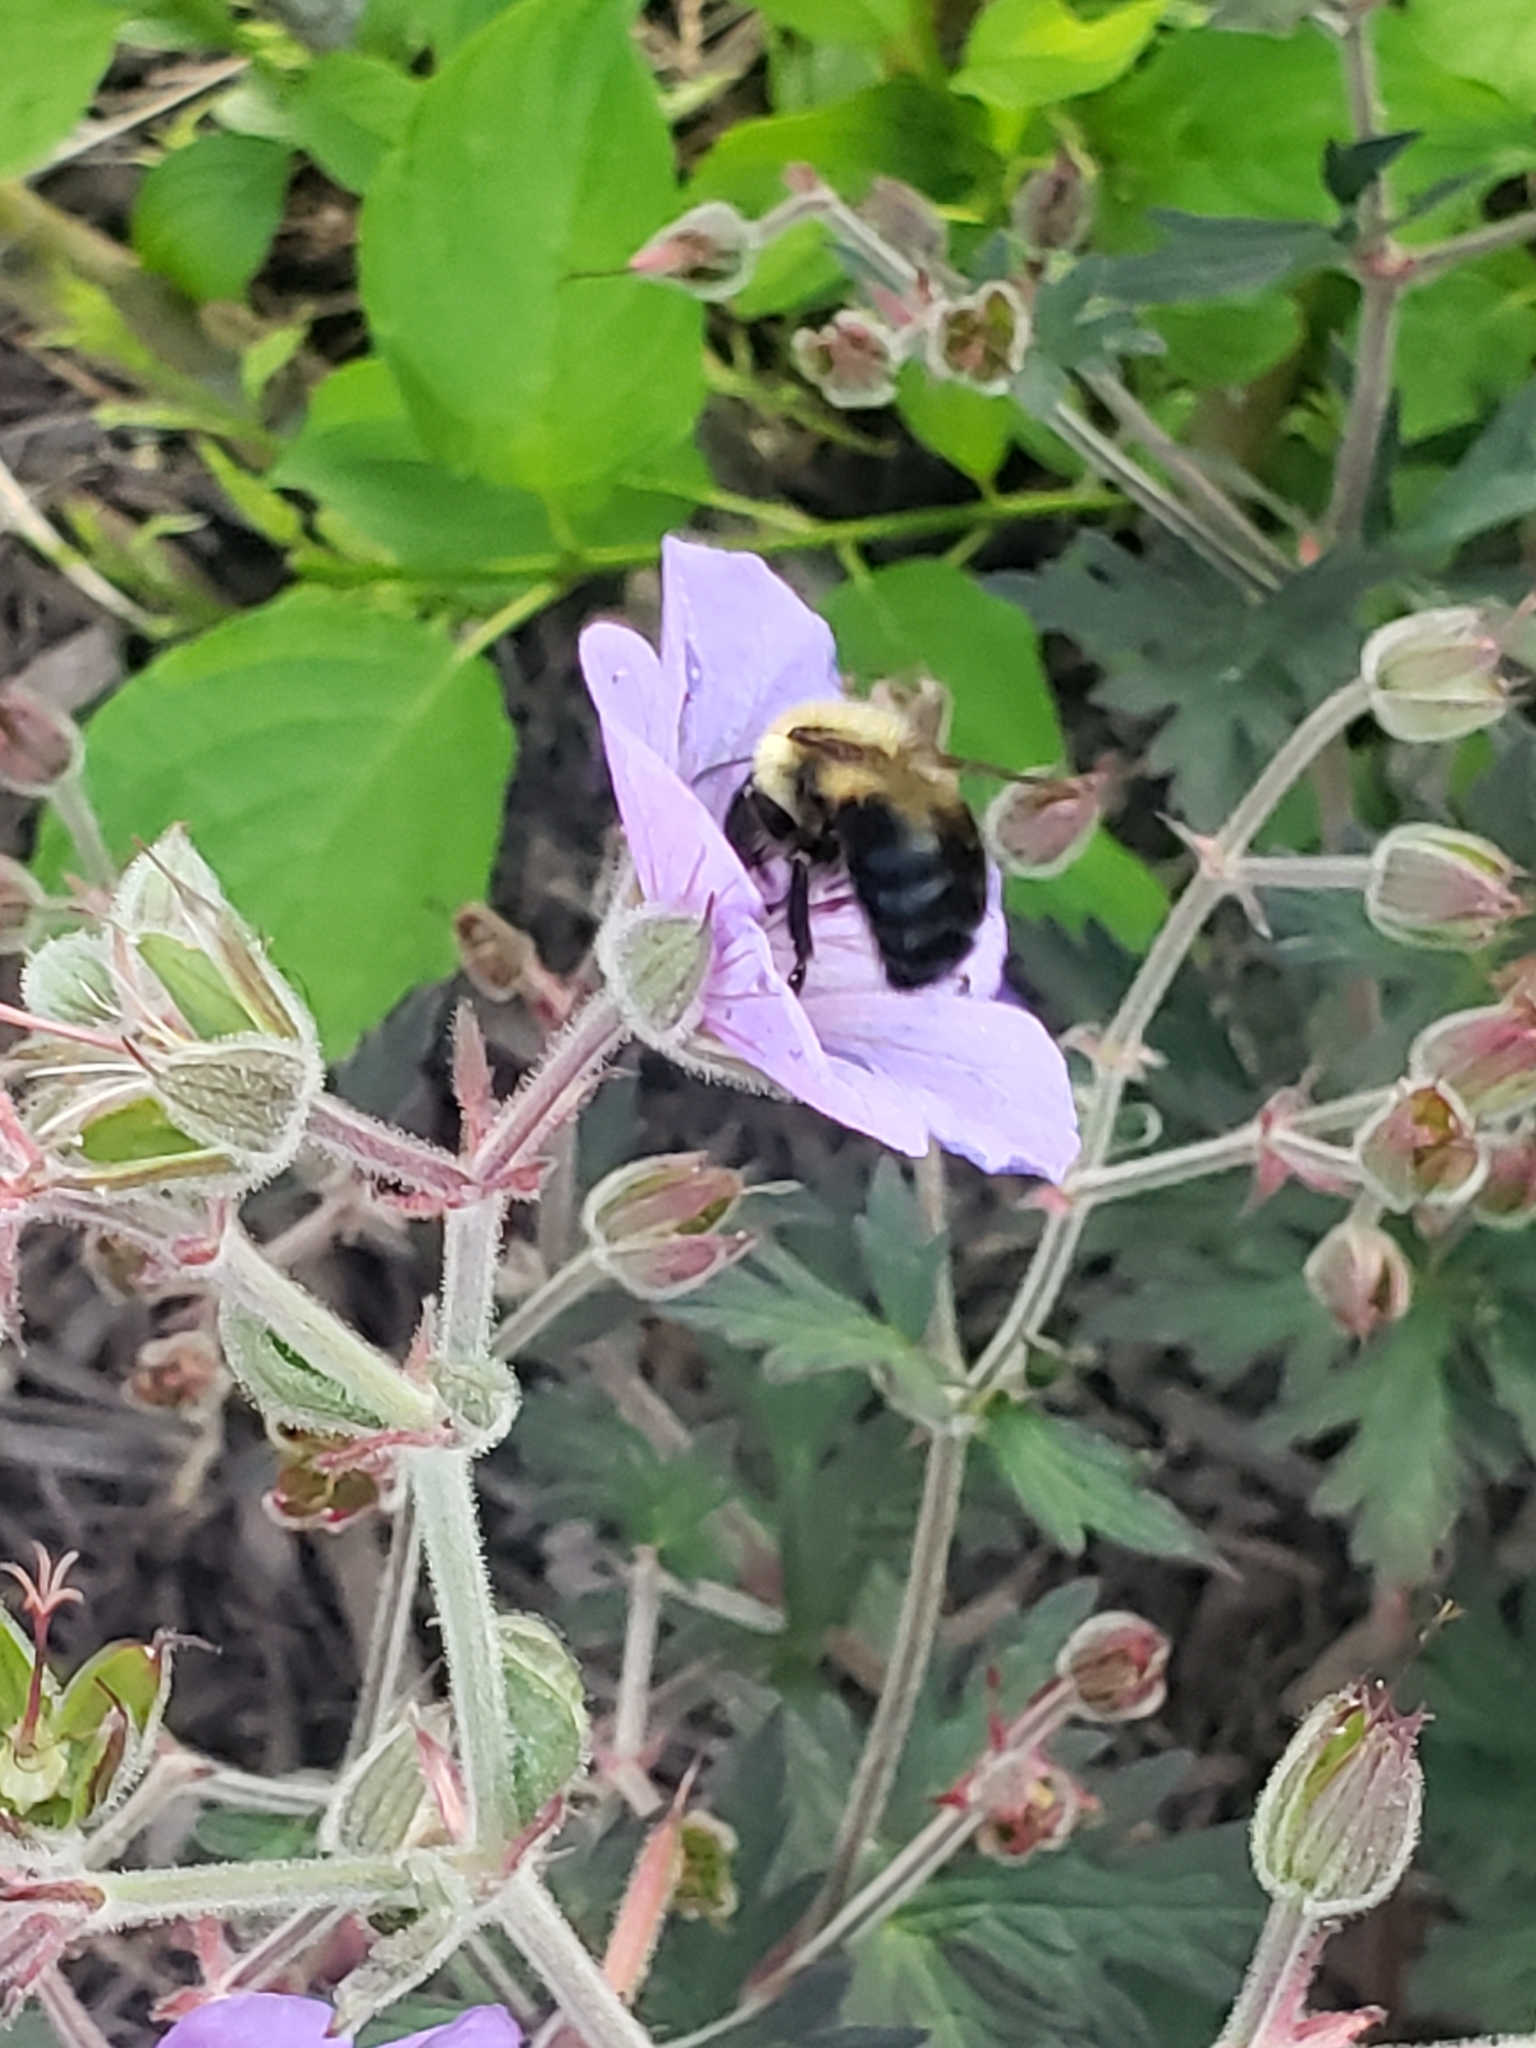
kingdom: Animalia
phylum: Arthropoda
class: Insecta
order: Hymenoptera
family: Apidae
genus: Bombus
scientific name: Bombus bimaculatus
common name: Two-spotted bumble bee
